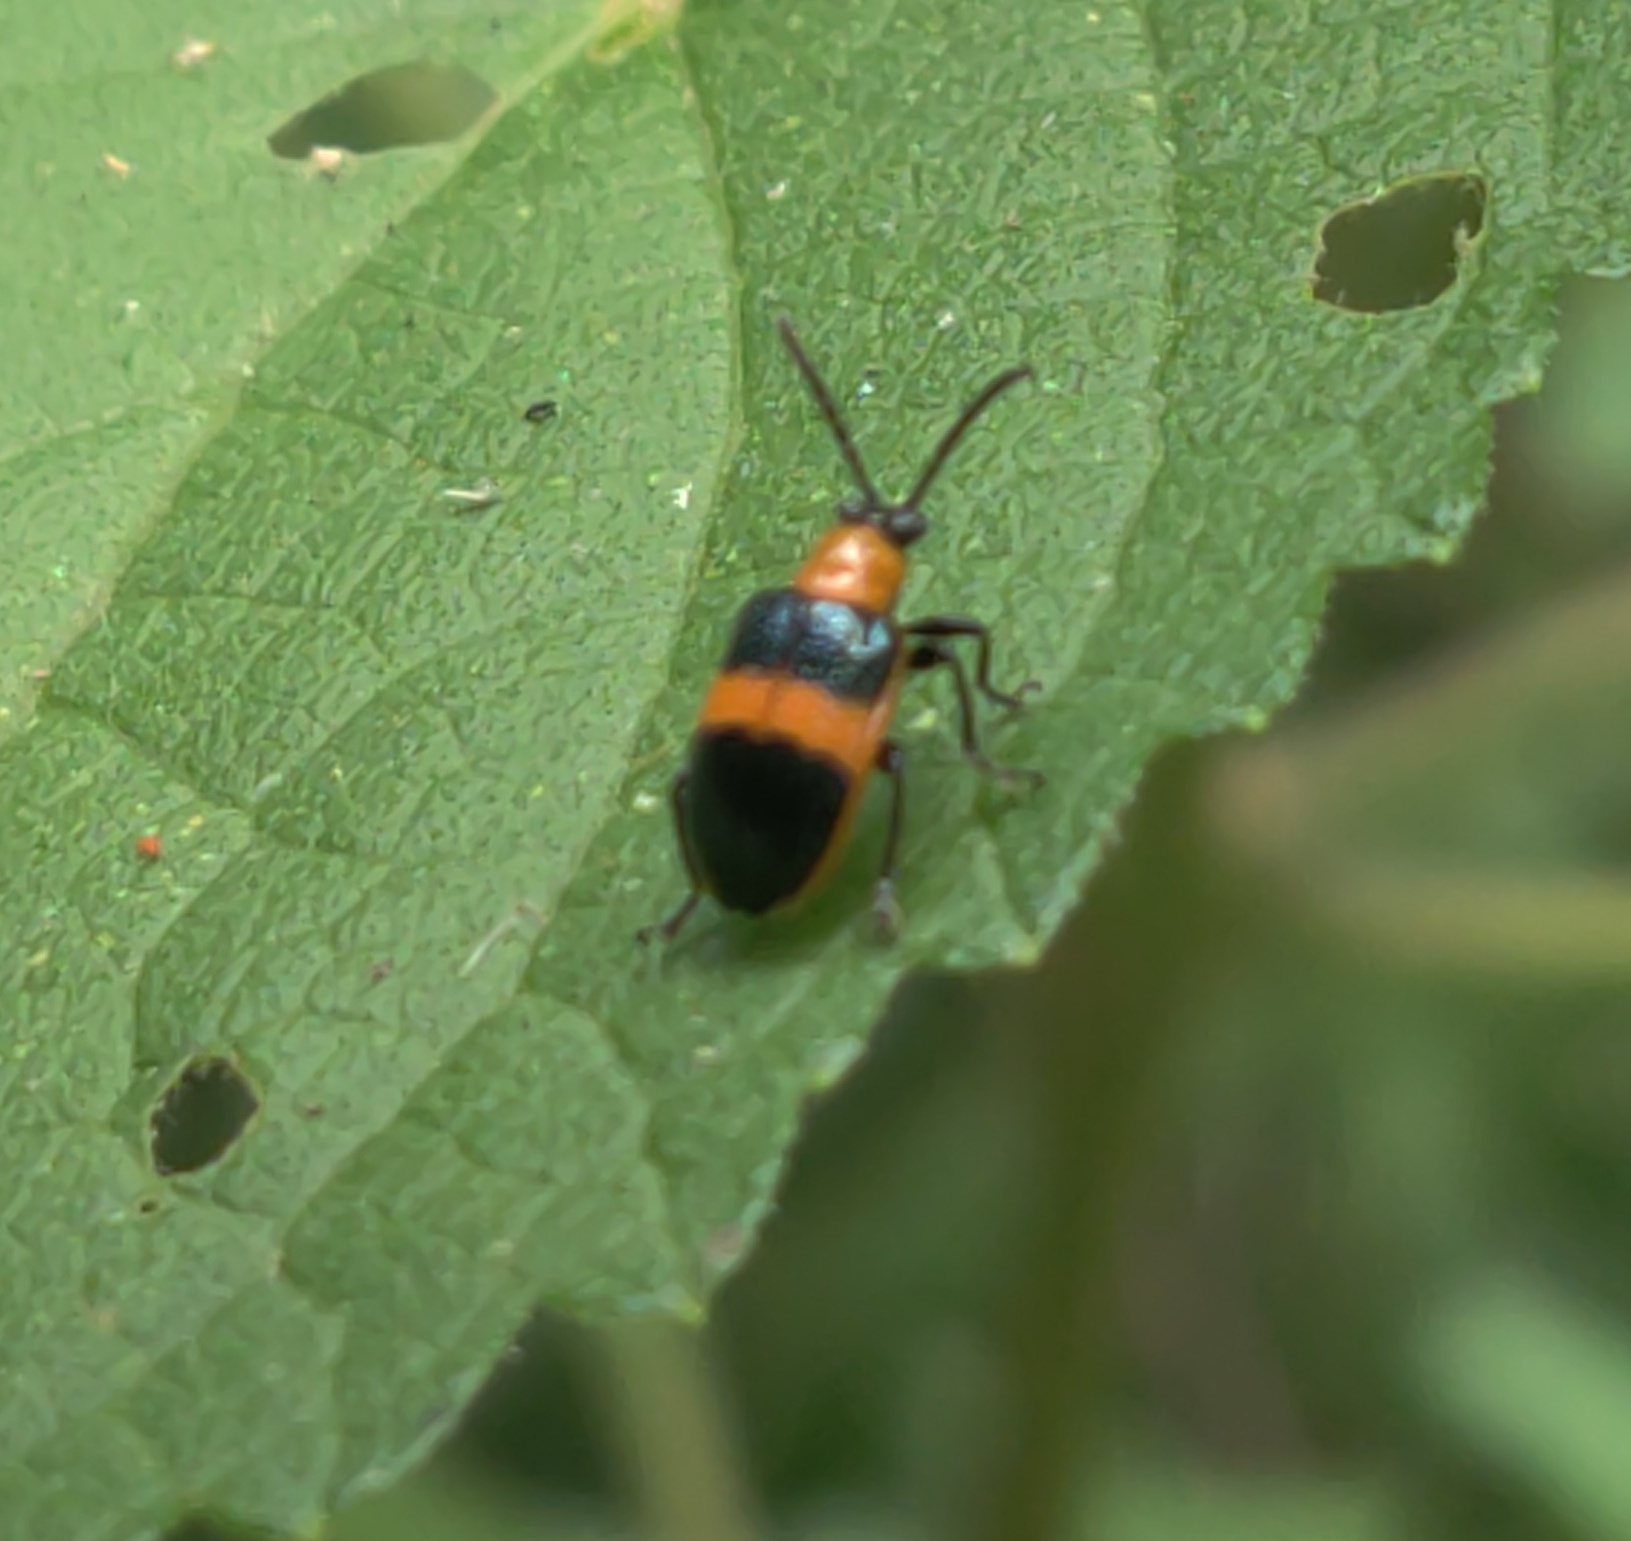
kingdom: Animalia
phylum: Arthropoda
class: Insecta
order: Coleoptera
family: Chrysomelidae
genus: Lema
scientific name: Lema solani
